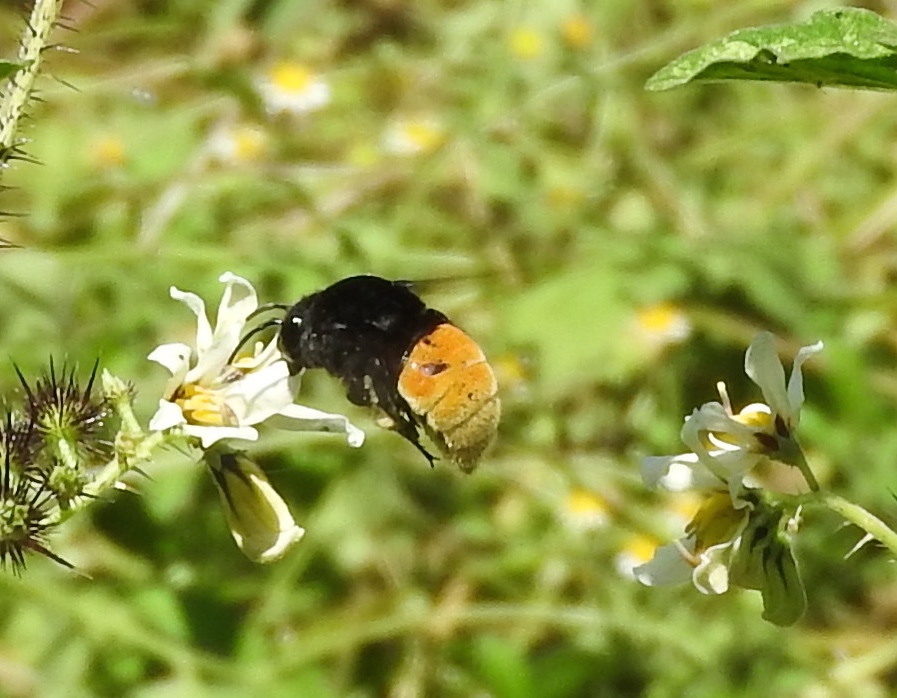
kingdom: Animalia
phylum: Arthropoda
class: Insecta
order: Hymenoptera
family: Apidae
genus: Eulaema
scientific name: Eulaema polychroma
